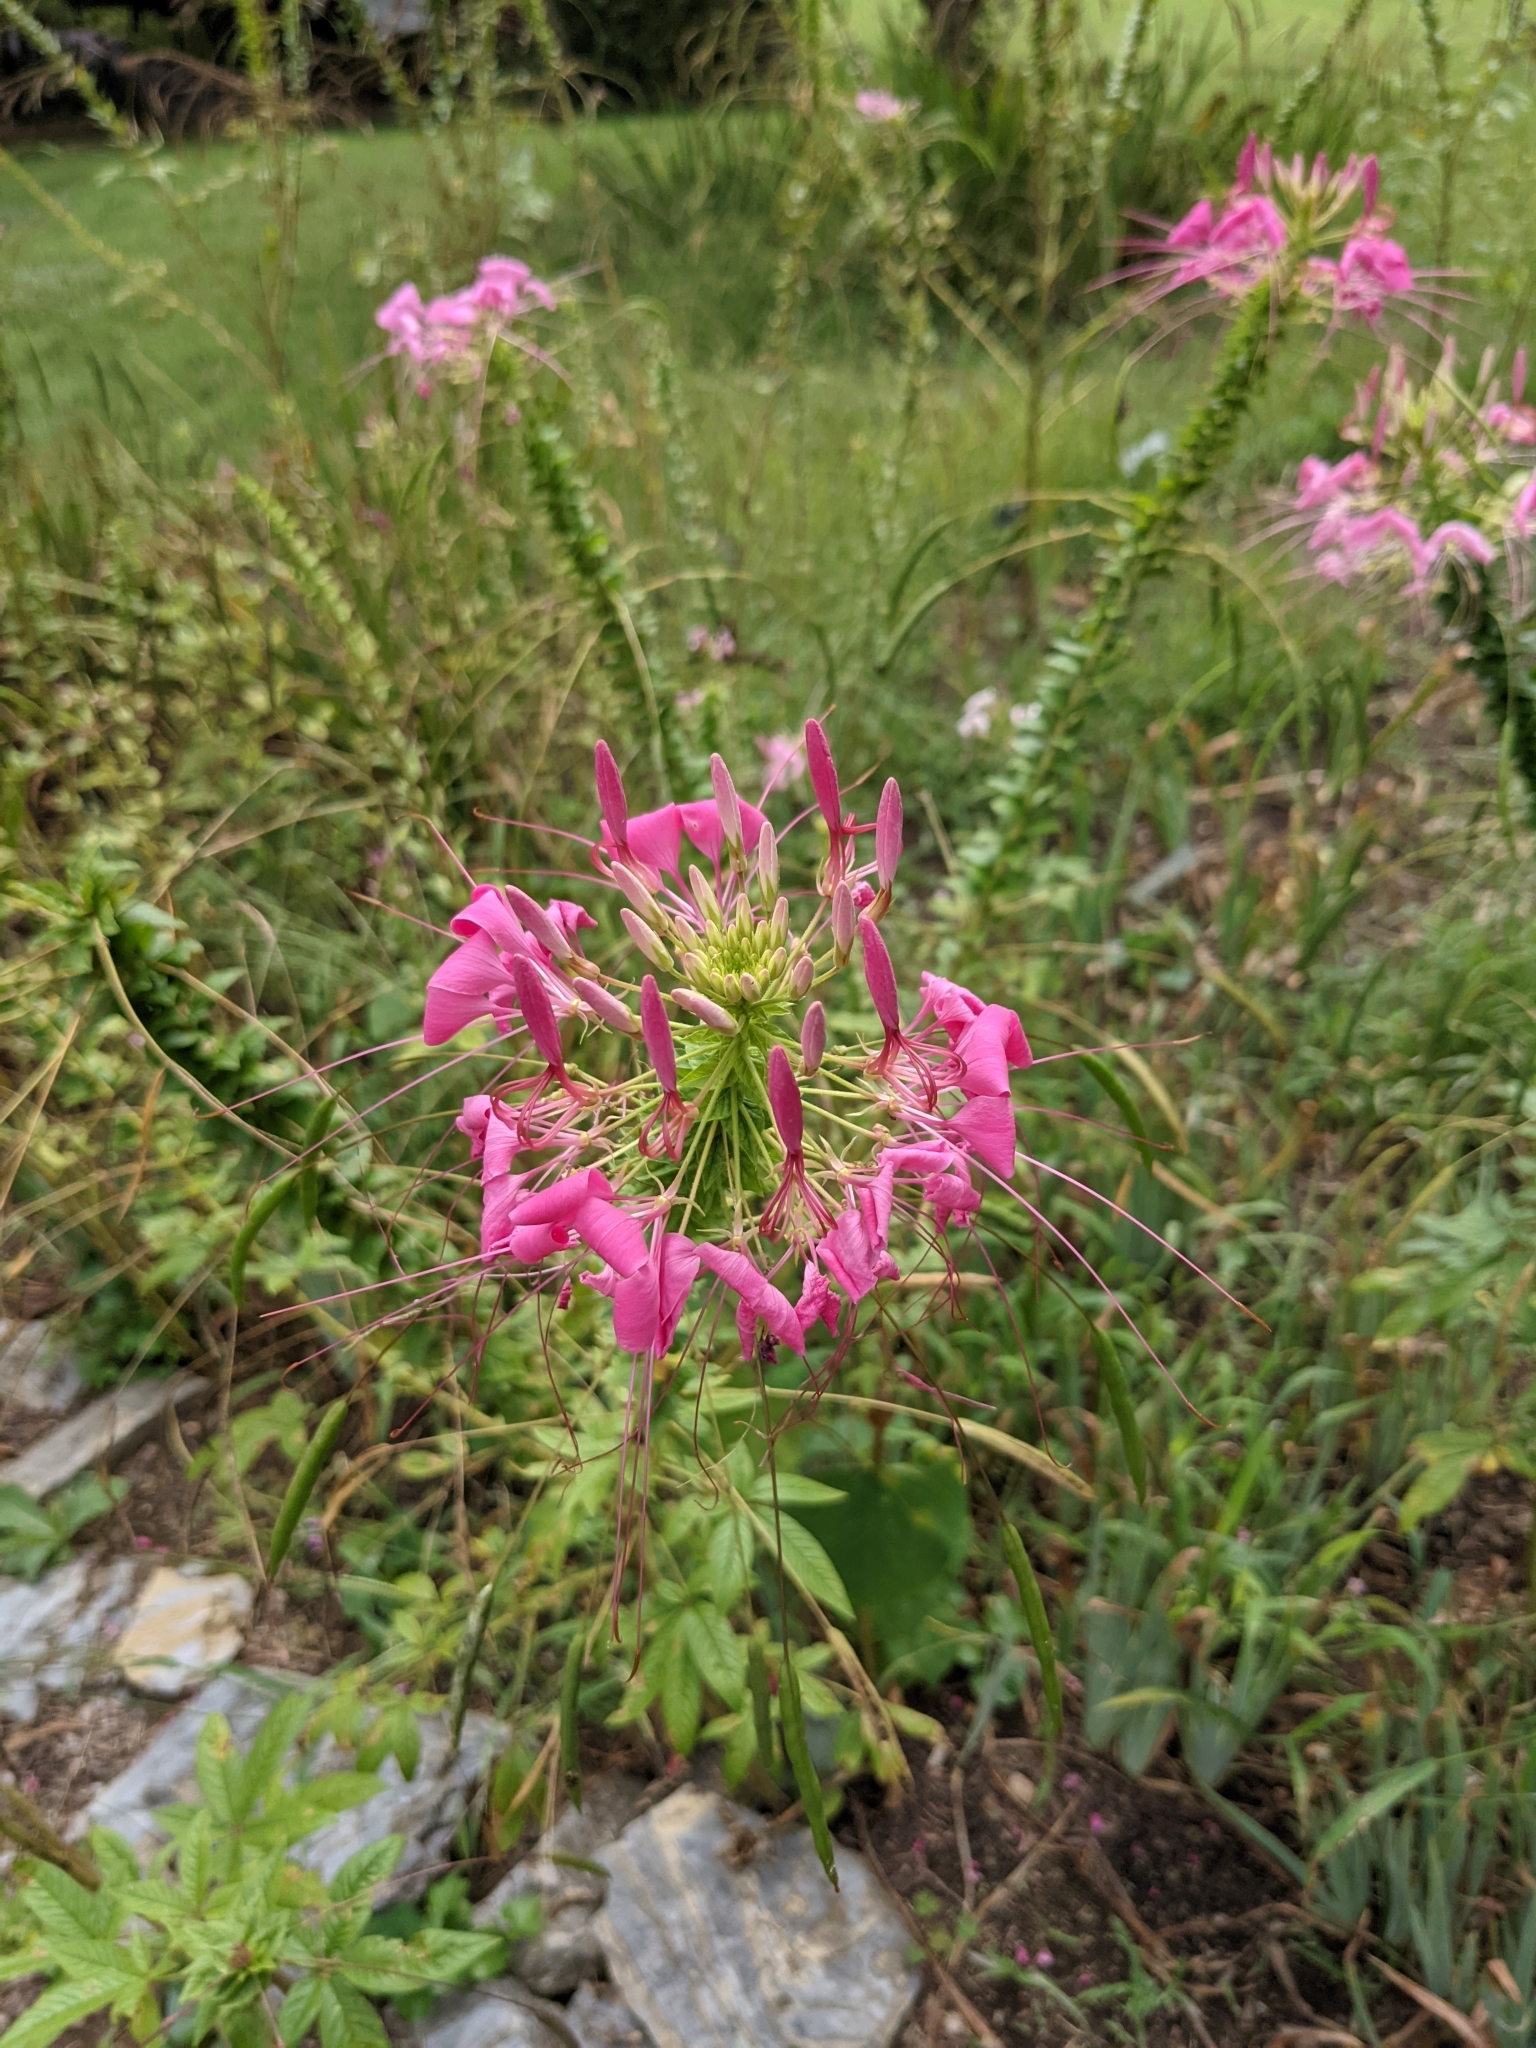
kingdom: Plantae
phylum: Tracheophyta
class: Magnoliopsida
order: Brassicales
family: Cleomaceae
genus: Tarenaya
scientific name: Tarenaya houtteana
